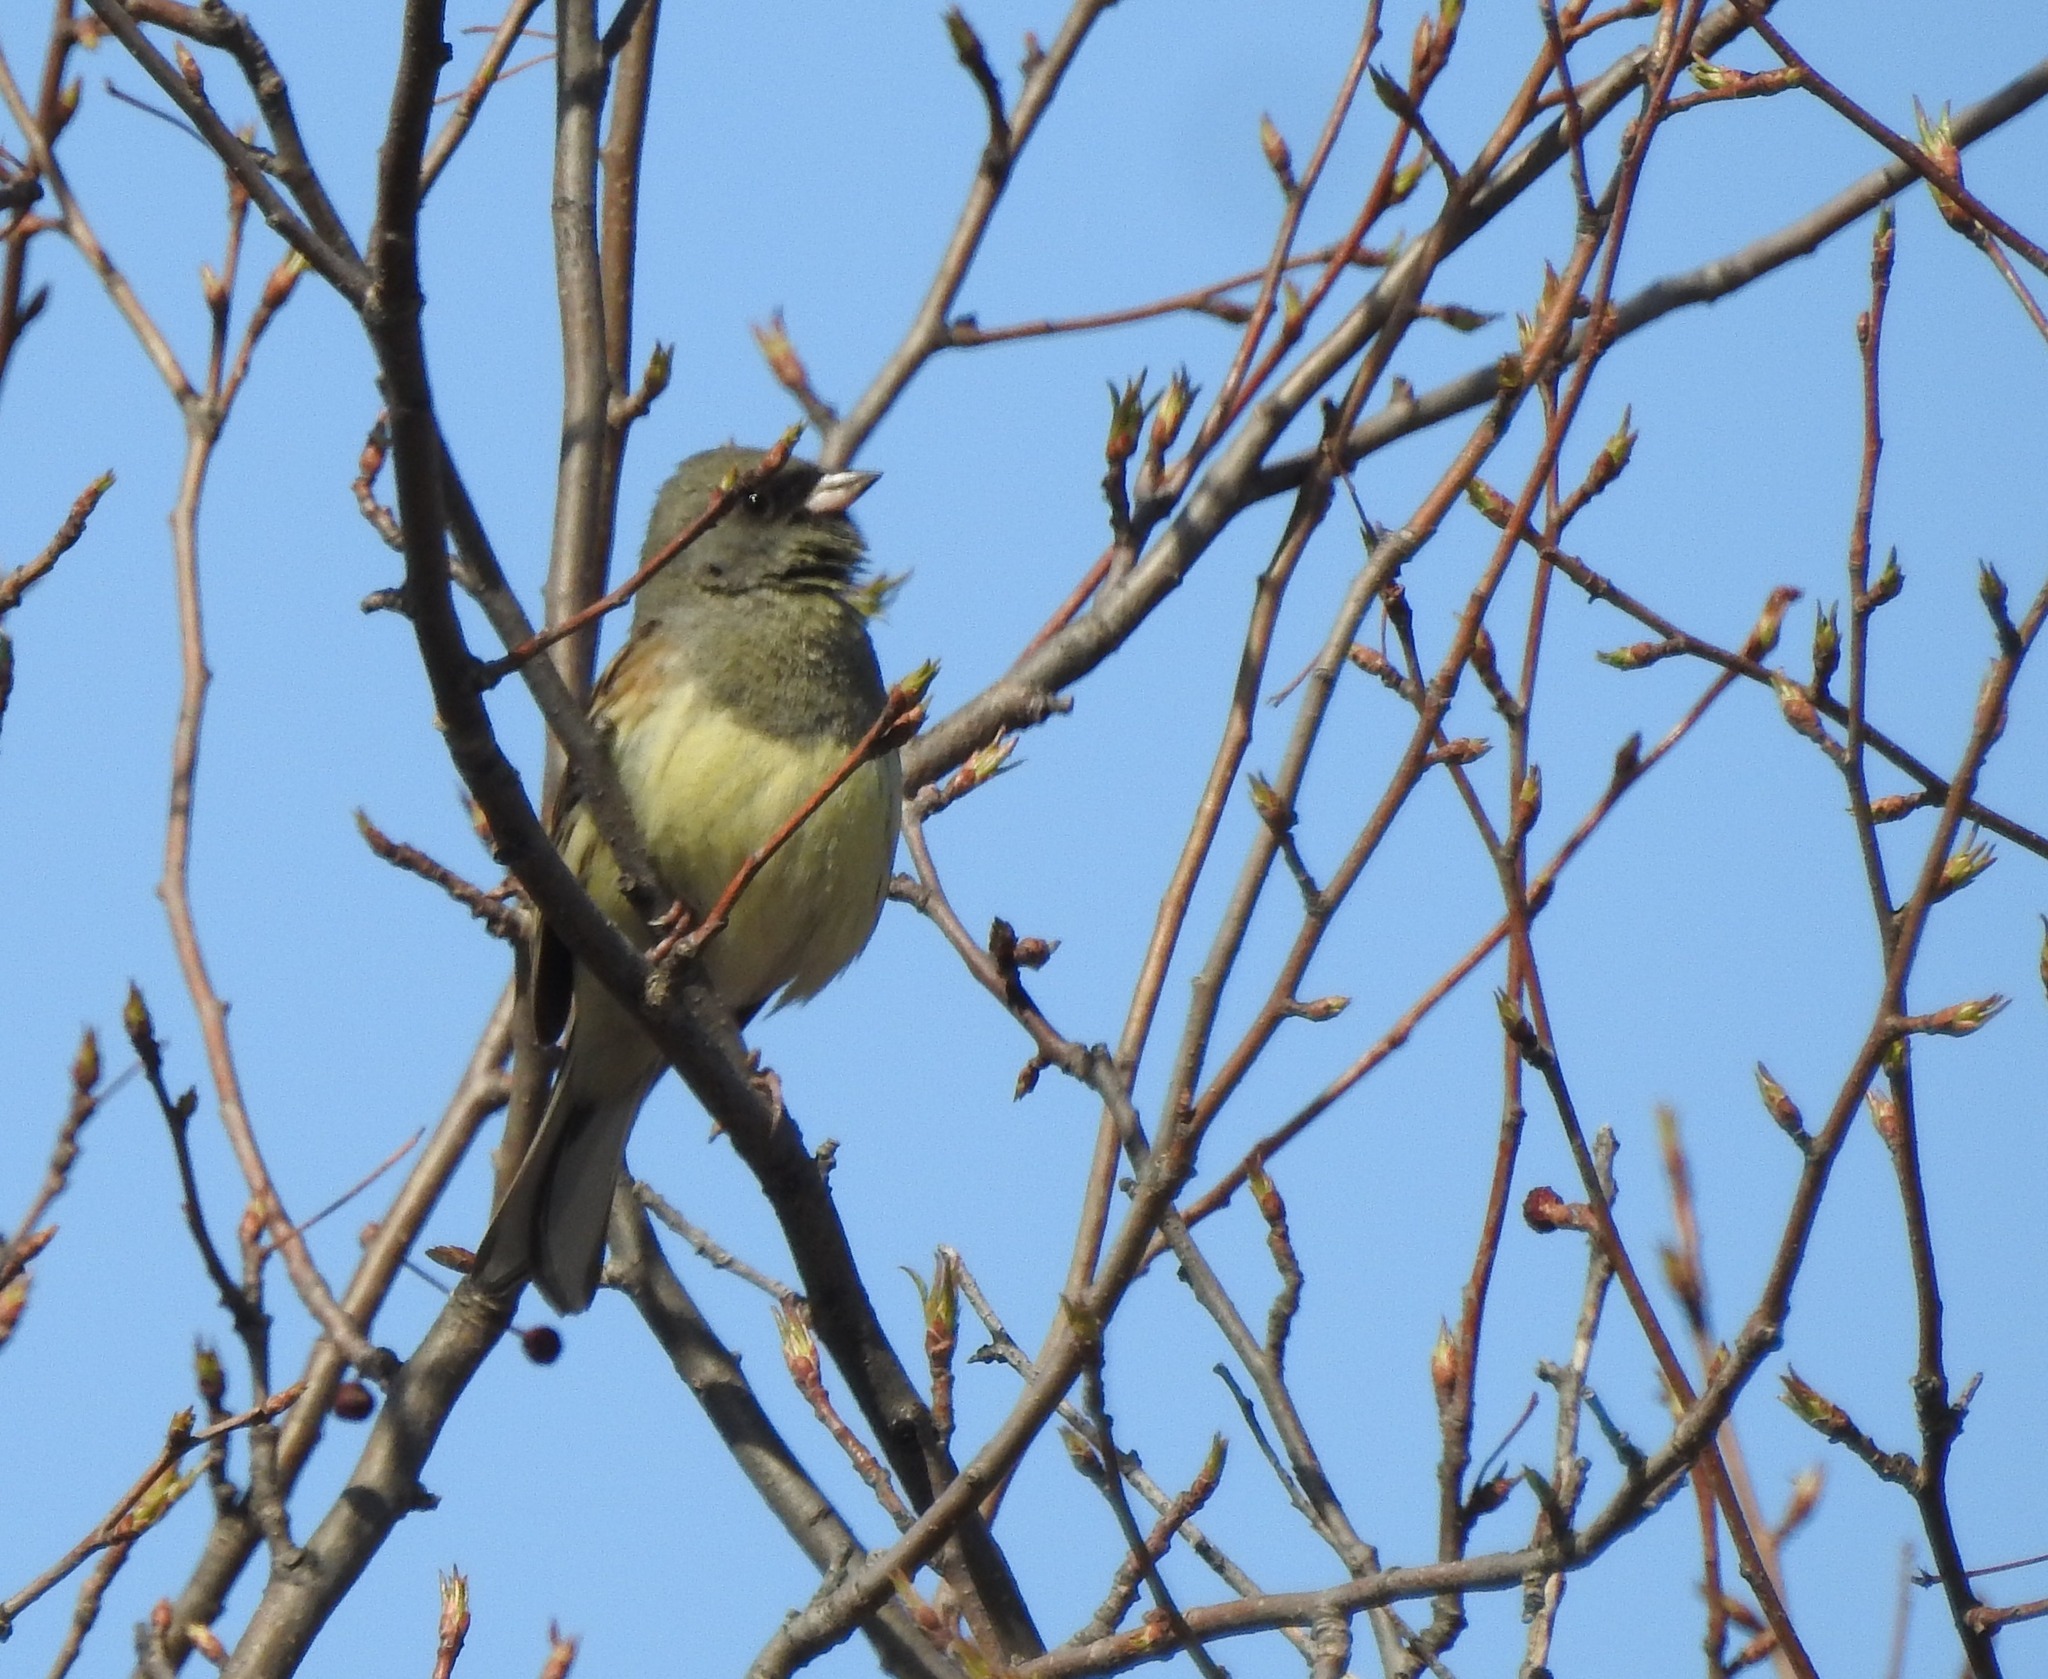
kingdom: Animalia
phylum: Chordata
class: Aves
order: Passeriformes
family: Emberizidae
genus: Emberiza
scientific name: Emberiza spodocephala
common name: Black-faced bunting
